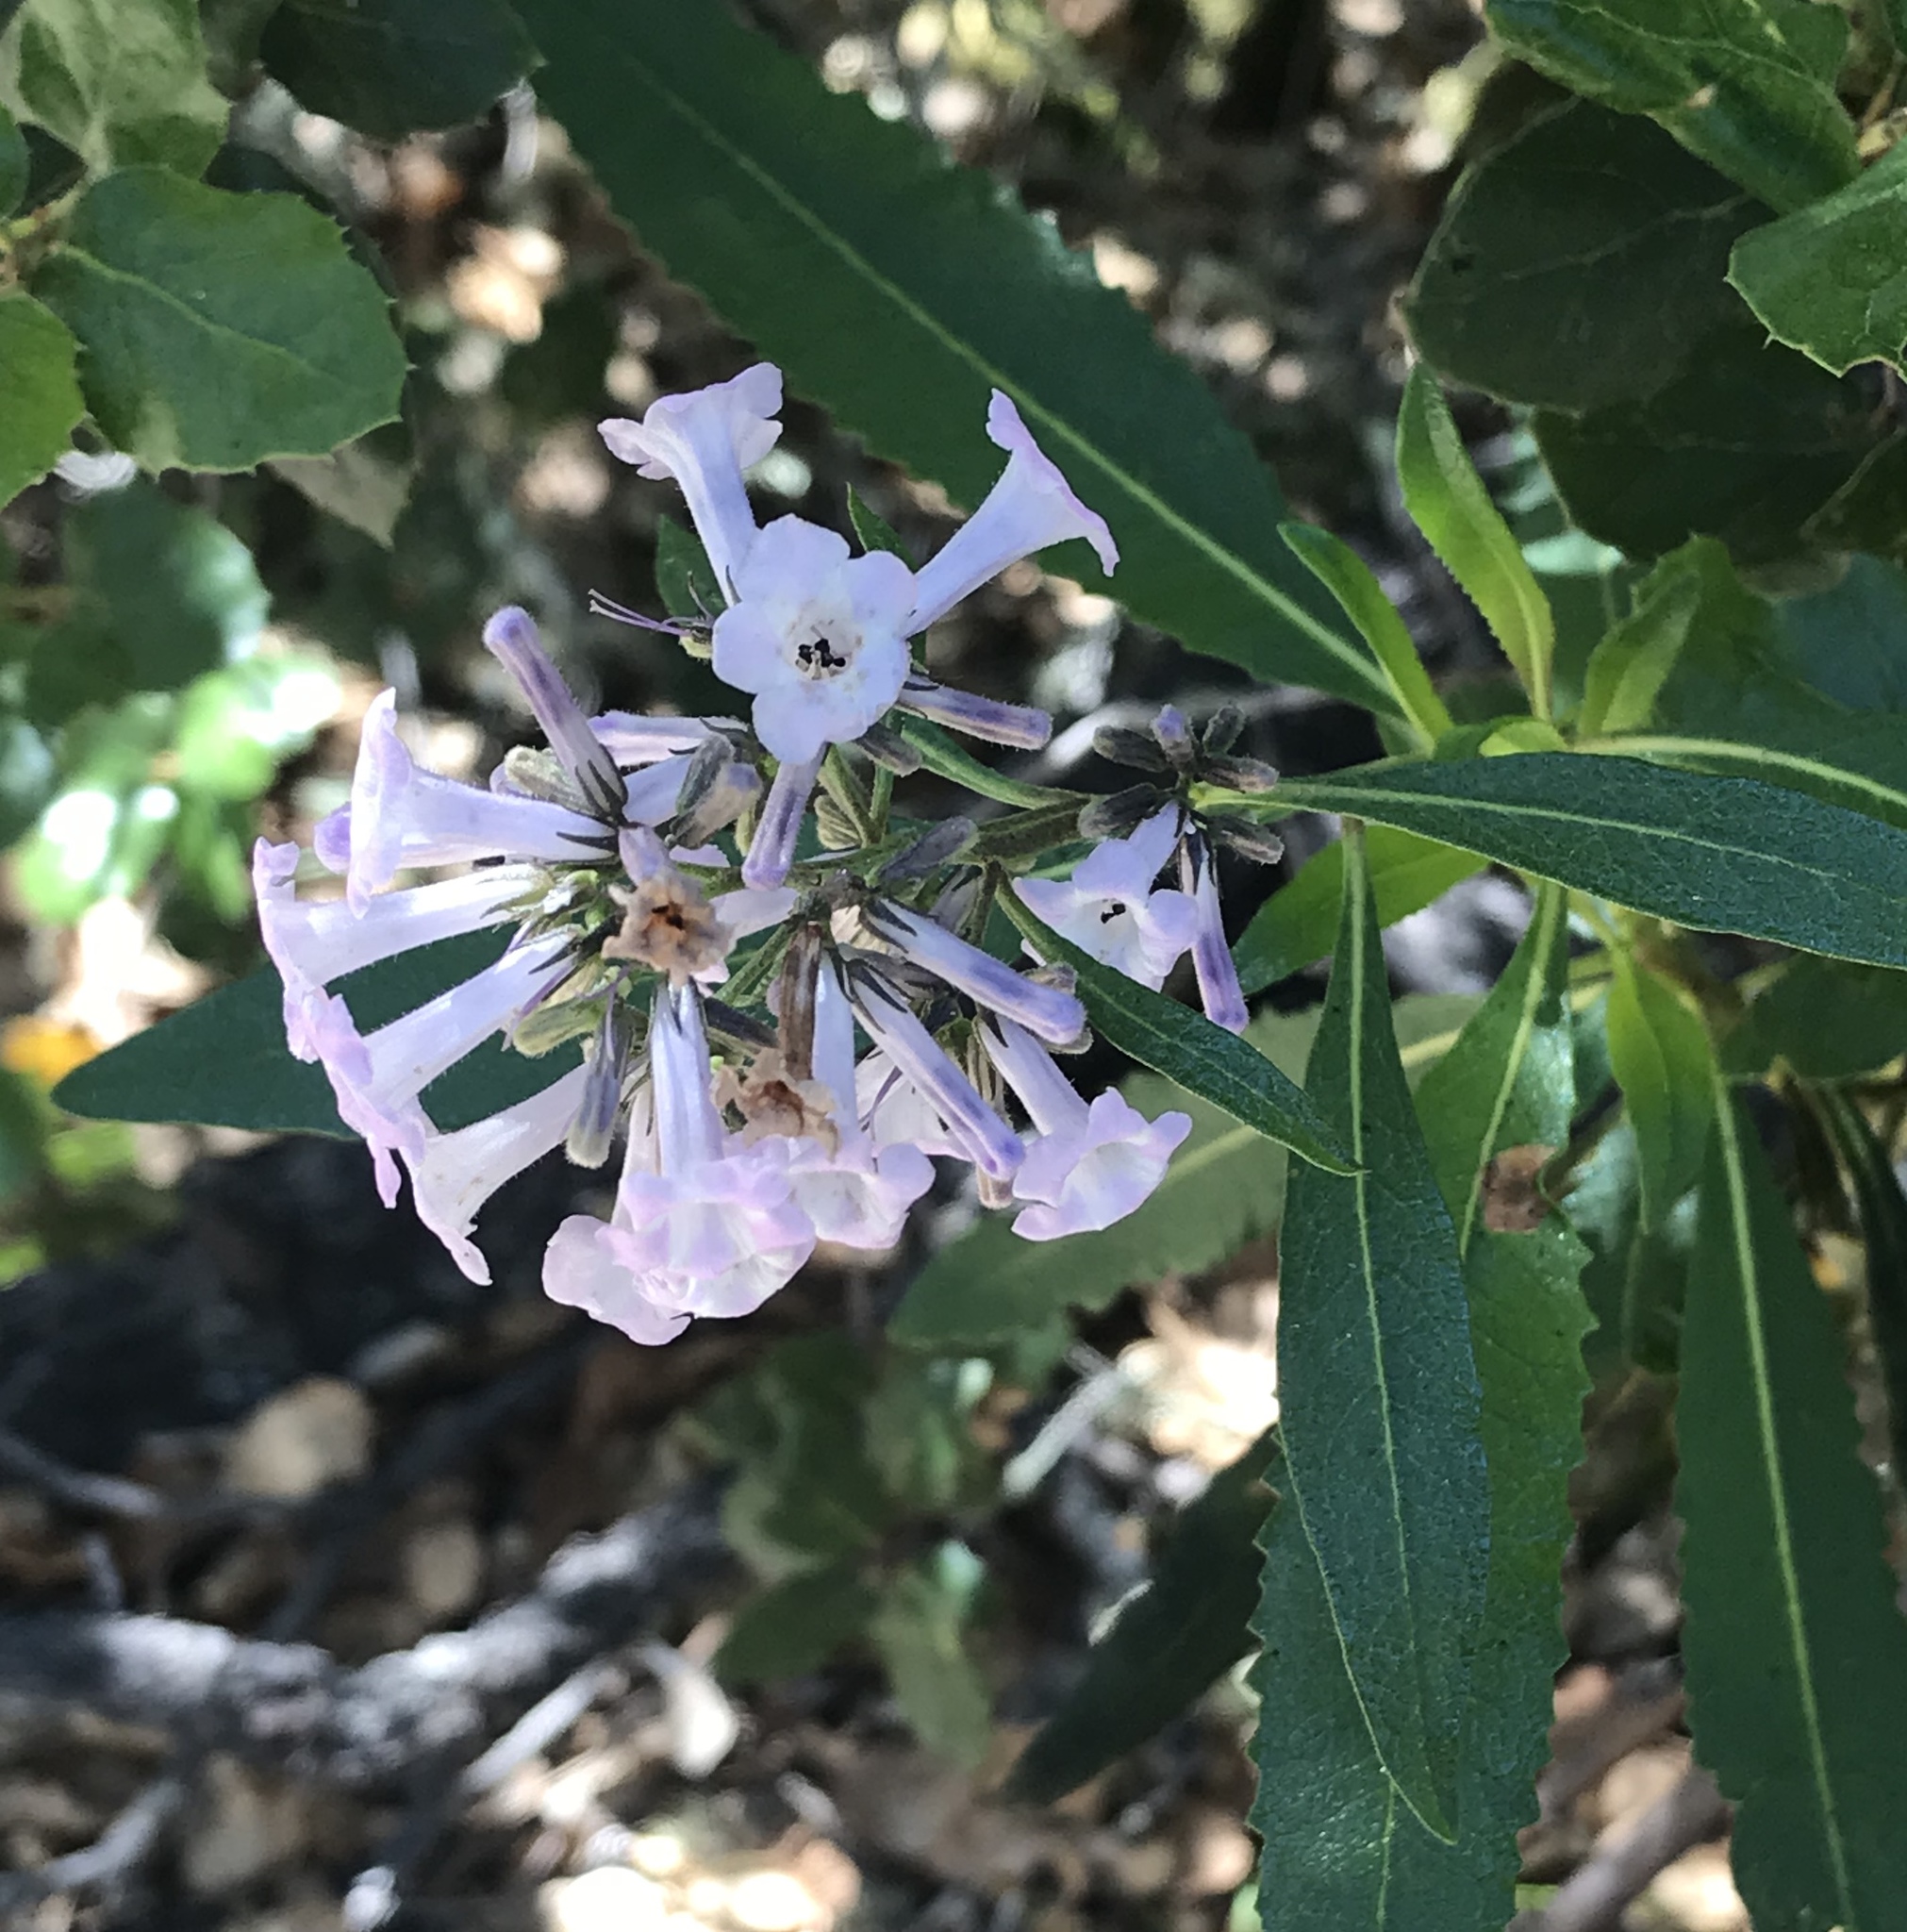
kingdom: Plantae
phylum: Tracheophyta
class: Magnoliopsida
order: Boraginales
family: Namaceae
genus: Eriodictyon
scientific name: Eriodictyon californicum
